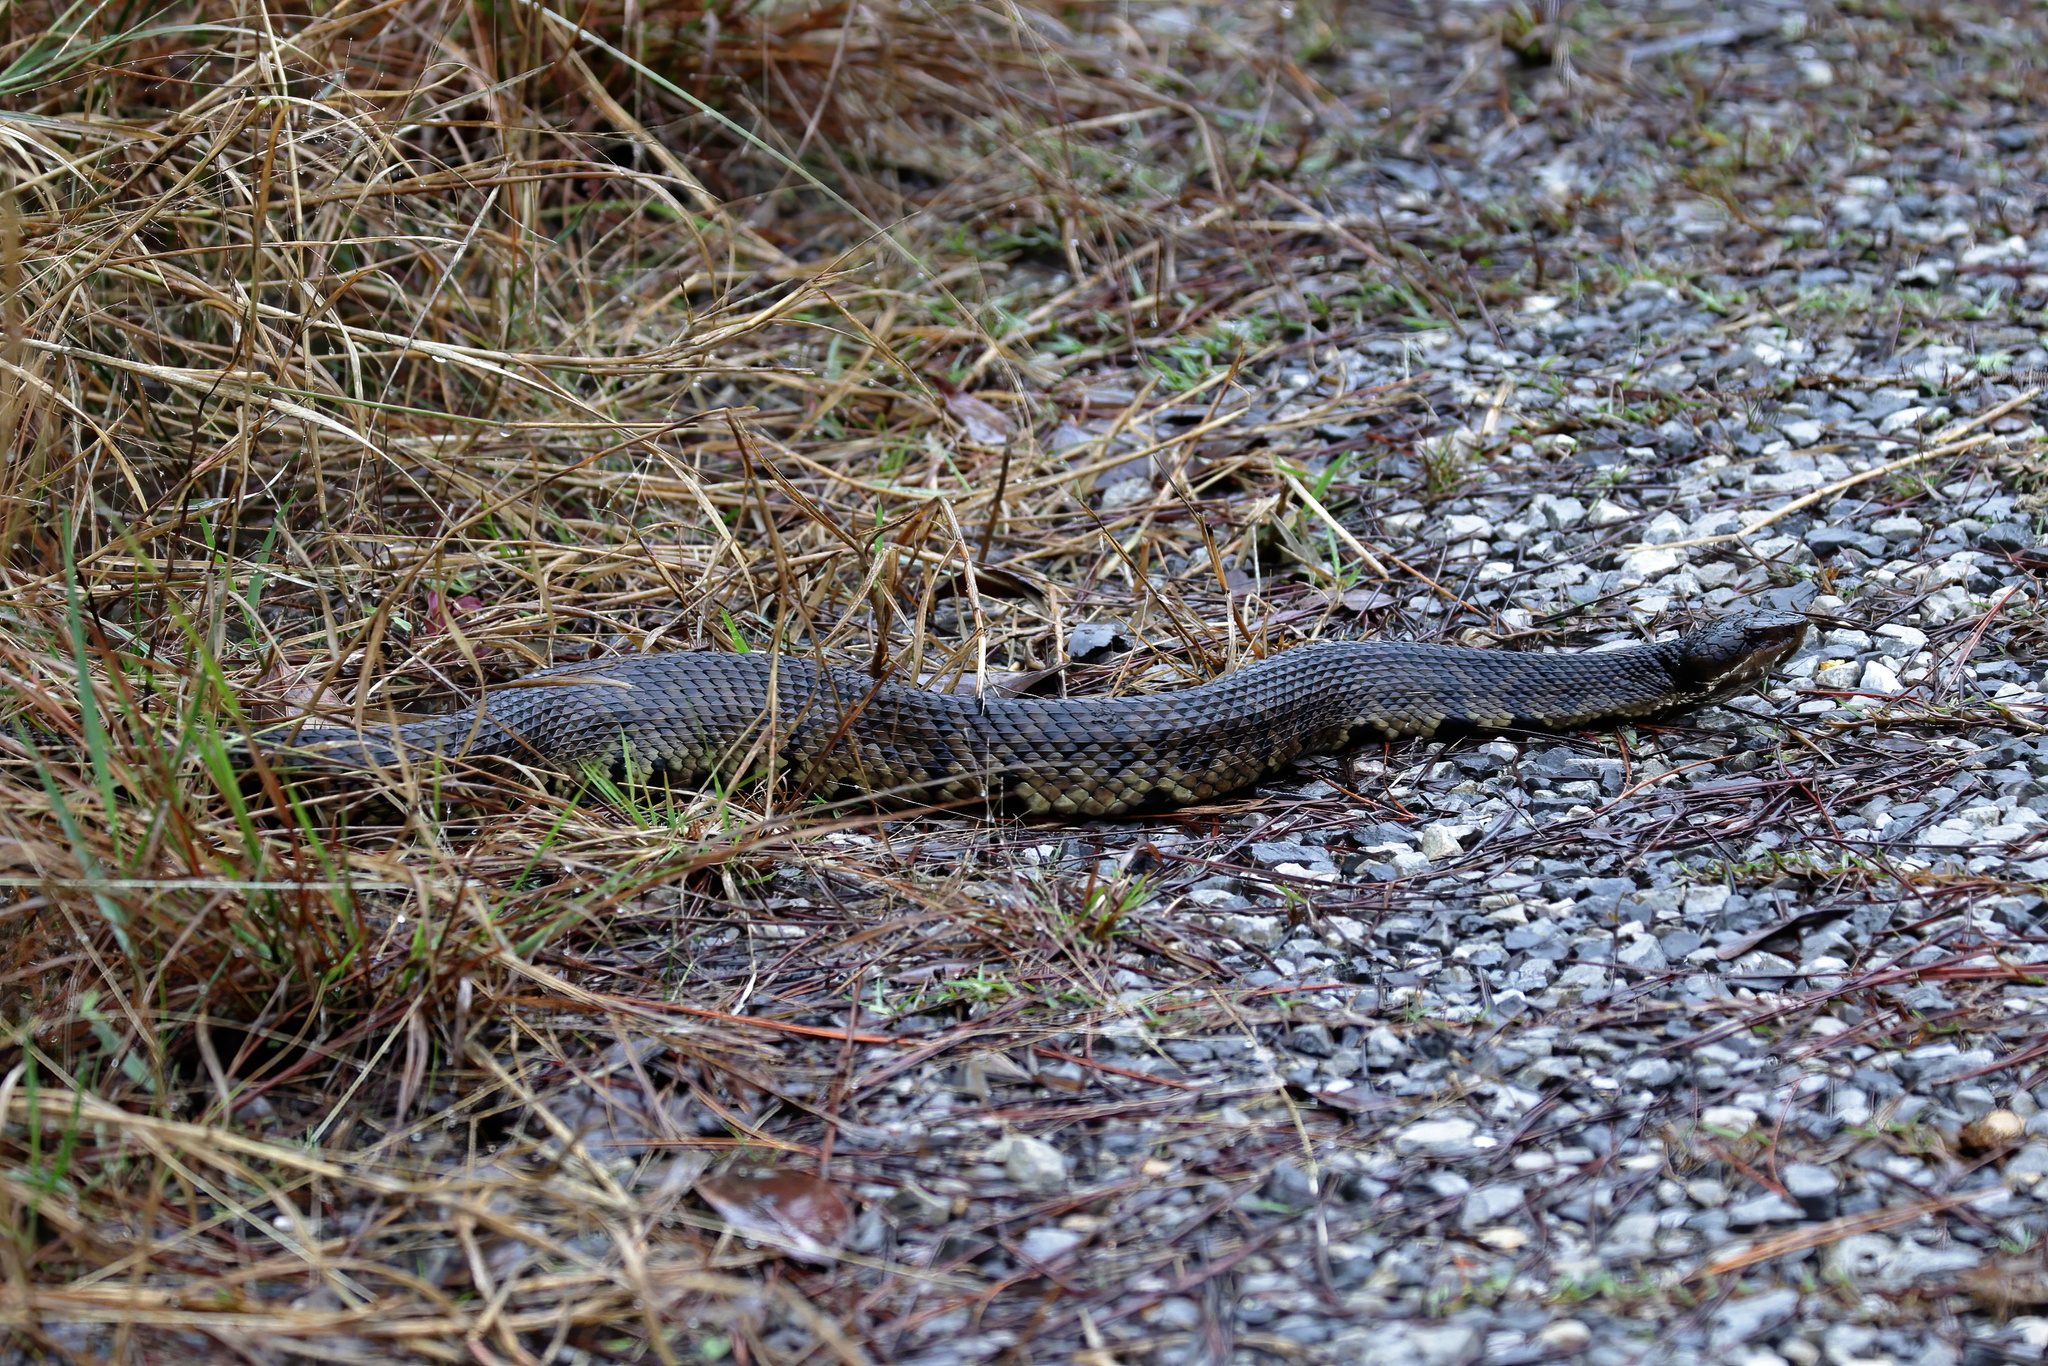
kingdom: Animalia
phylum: Chordata
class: Squamata
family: Viperidae
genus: Agkistrodon
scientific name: Agkistrodon piscivorus
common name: Cottonmouth
